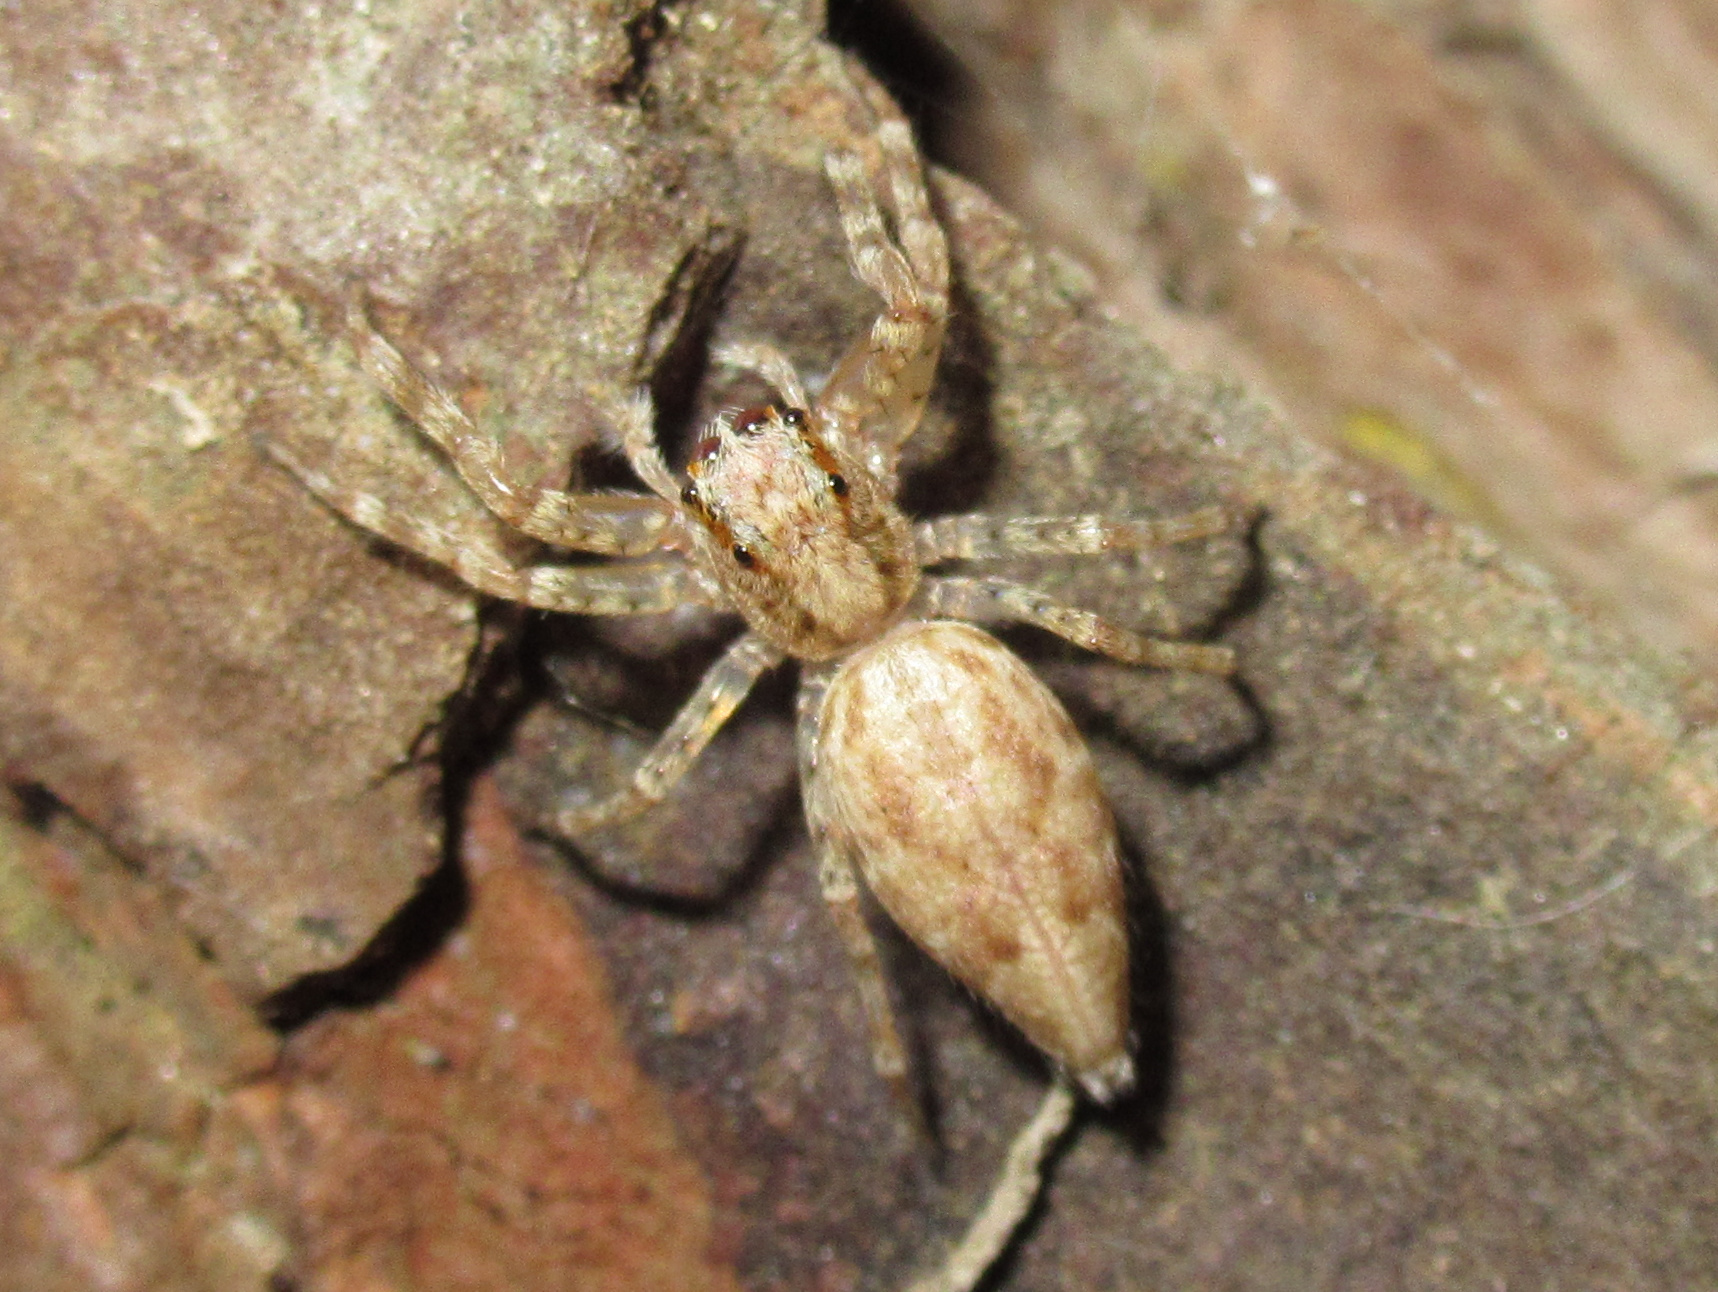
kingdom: Animalia
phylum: Arthropoda
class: Arachnida
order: Araneae
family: Salticidae
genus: Helpis
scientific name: Helpis minitabunda
